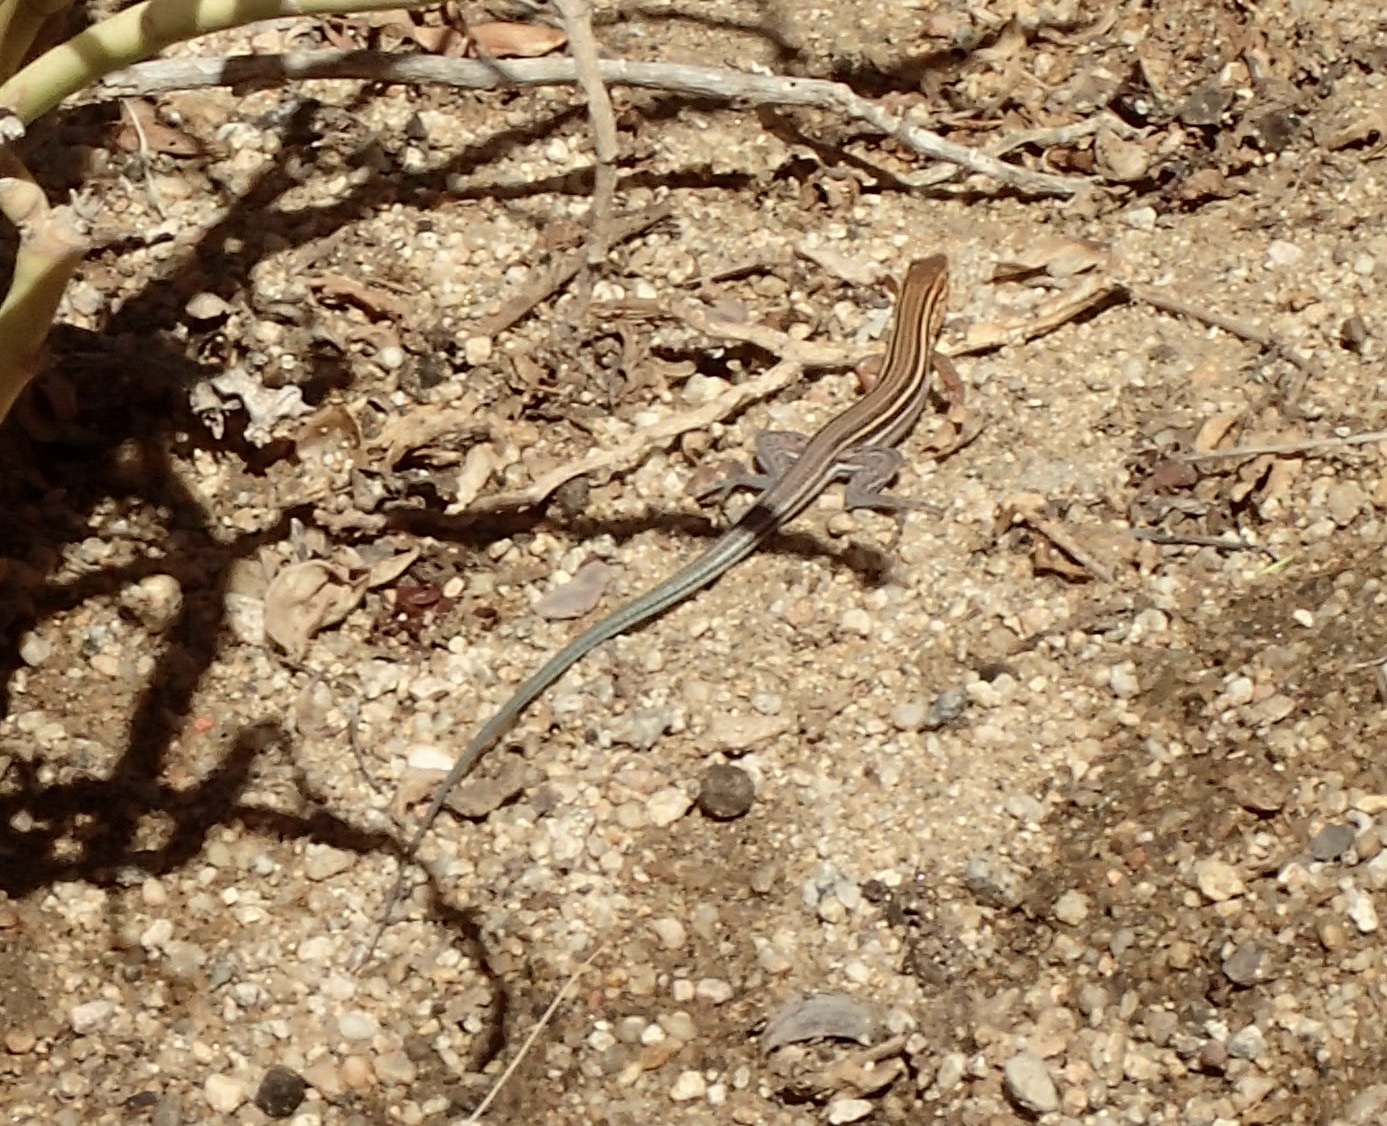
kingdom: Animalia
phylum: Chordata
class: Squamata
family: Teiidae
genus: Aspidoscelis
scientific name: Aspidoscelis hyperythrus
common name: Orange-throated race-runner
